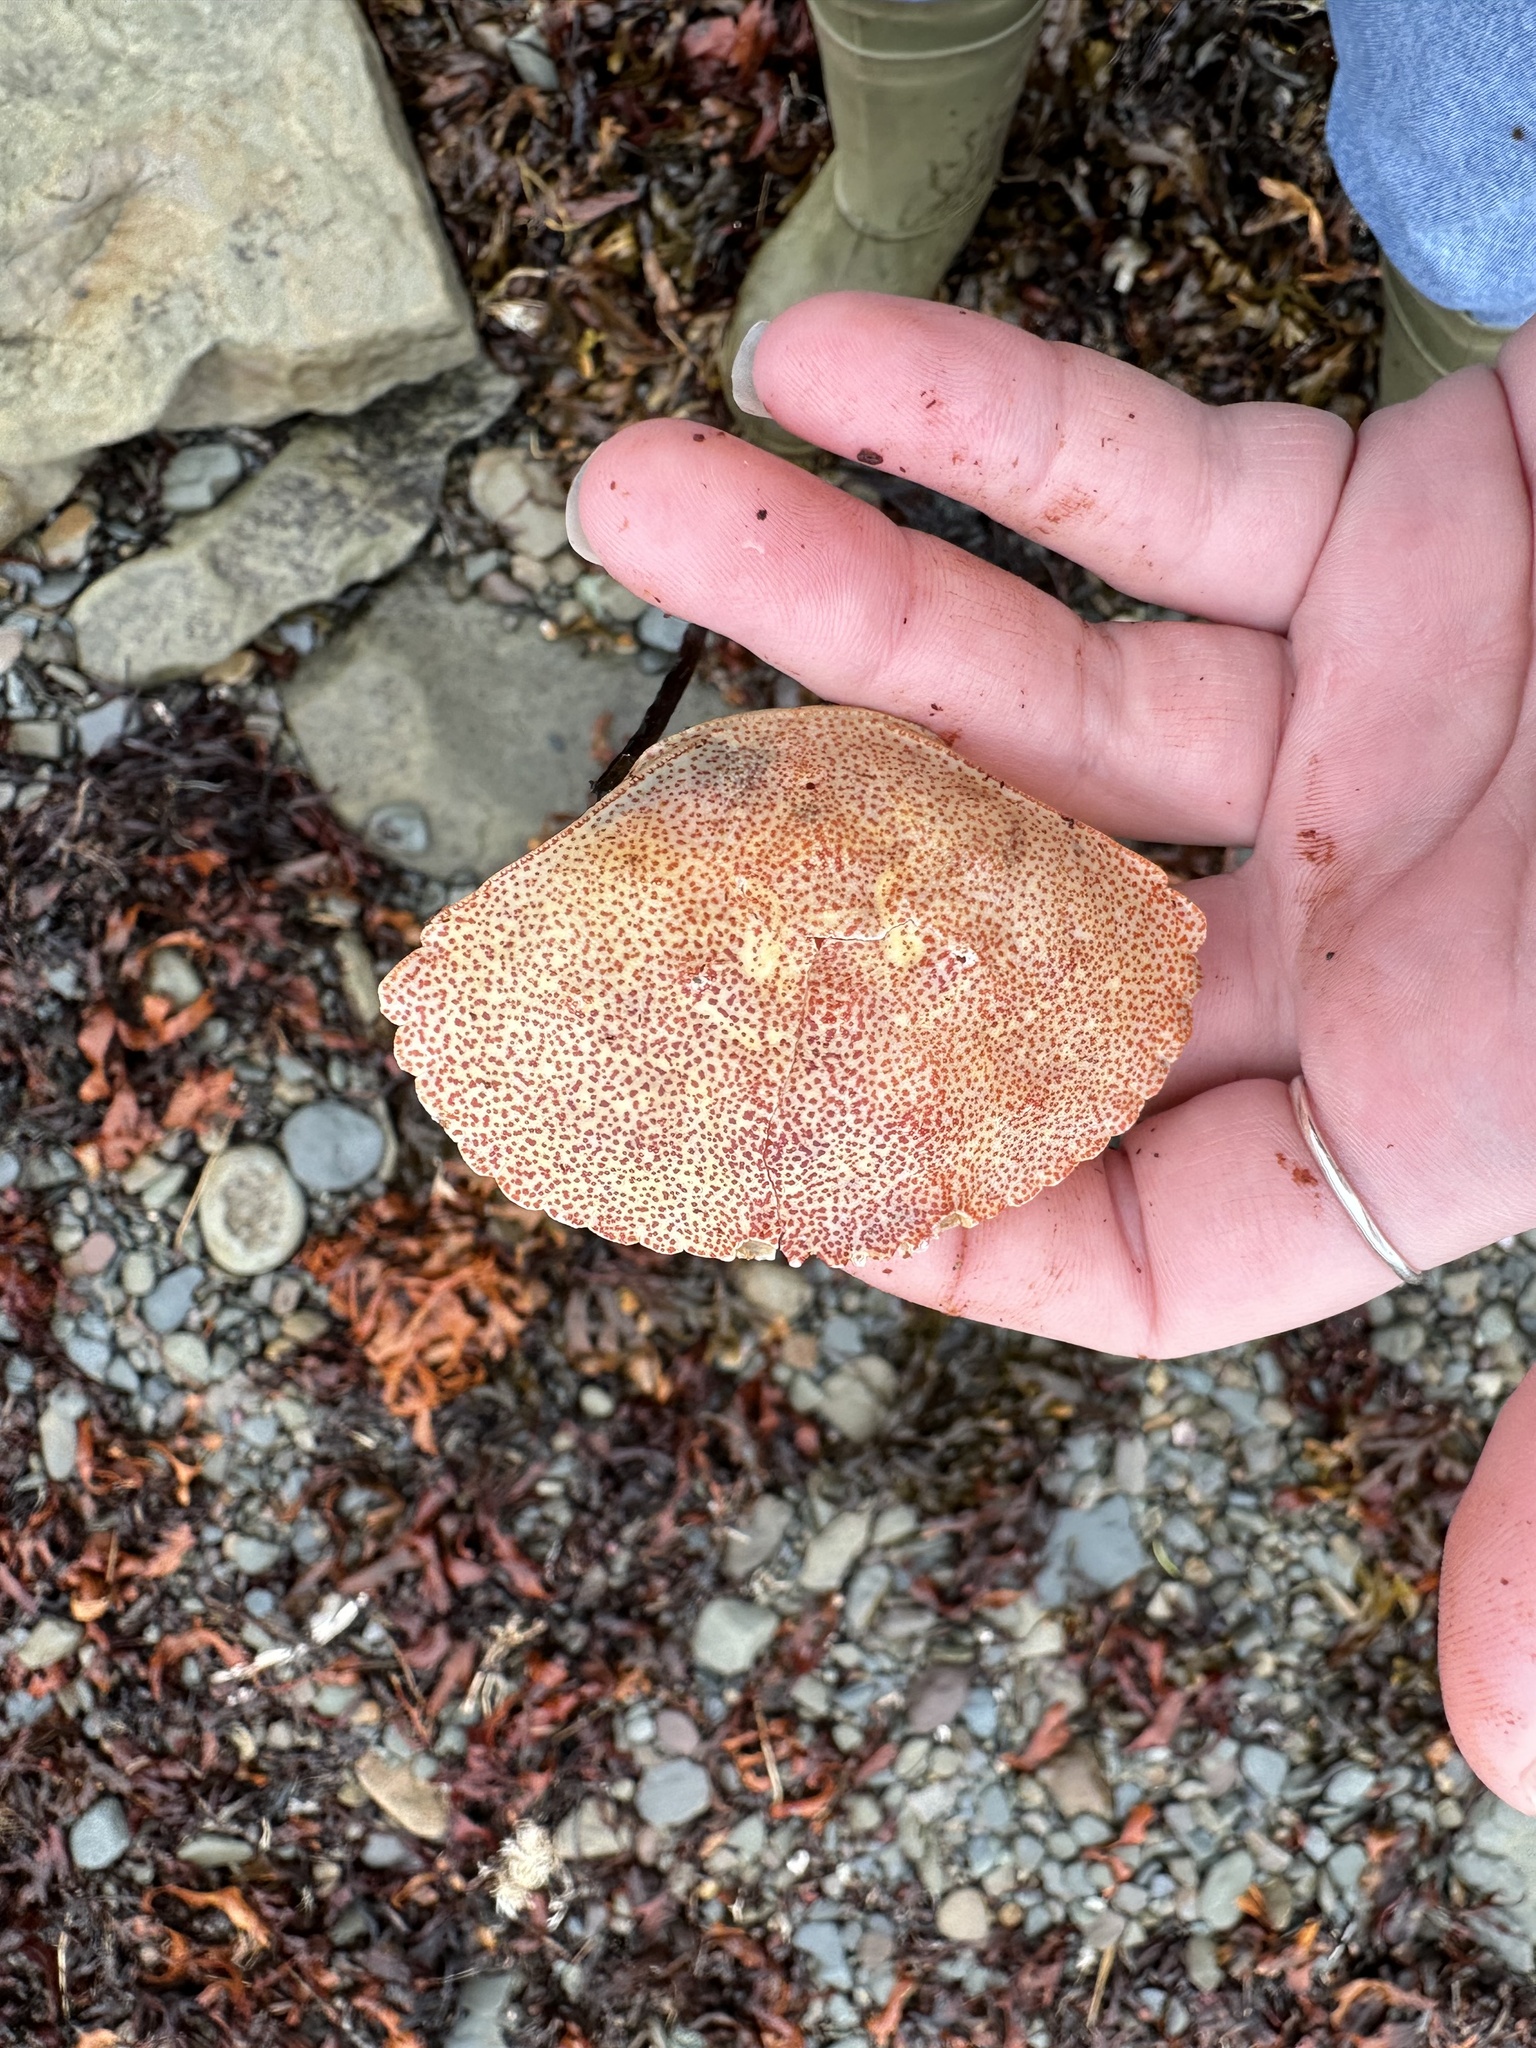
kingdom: Animalia
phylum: Arthropoda
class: Malacostraca
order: Decapoda
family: Cancridae
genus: Cancer
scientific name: Cancer irroratus
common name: Atlantic rock crab
